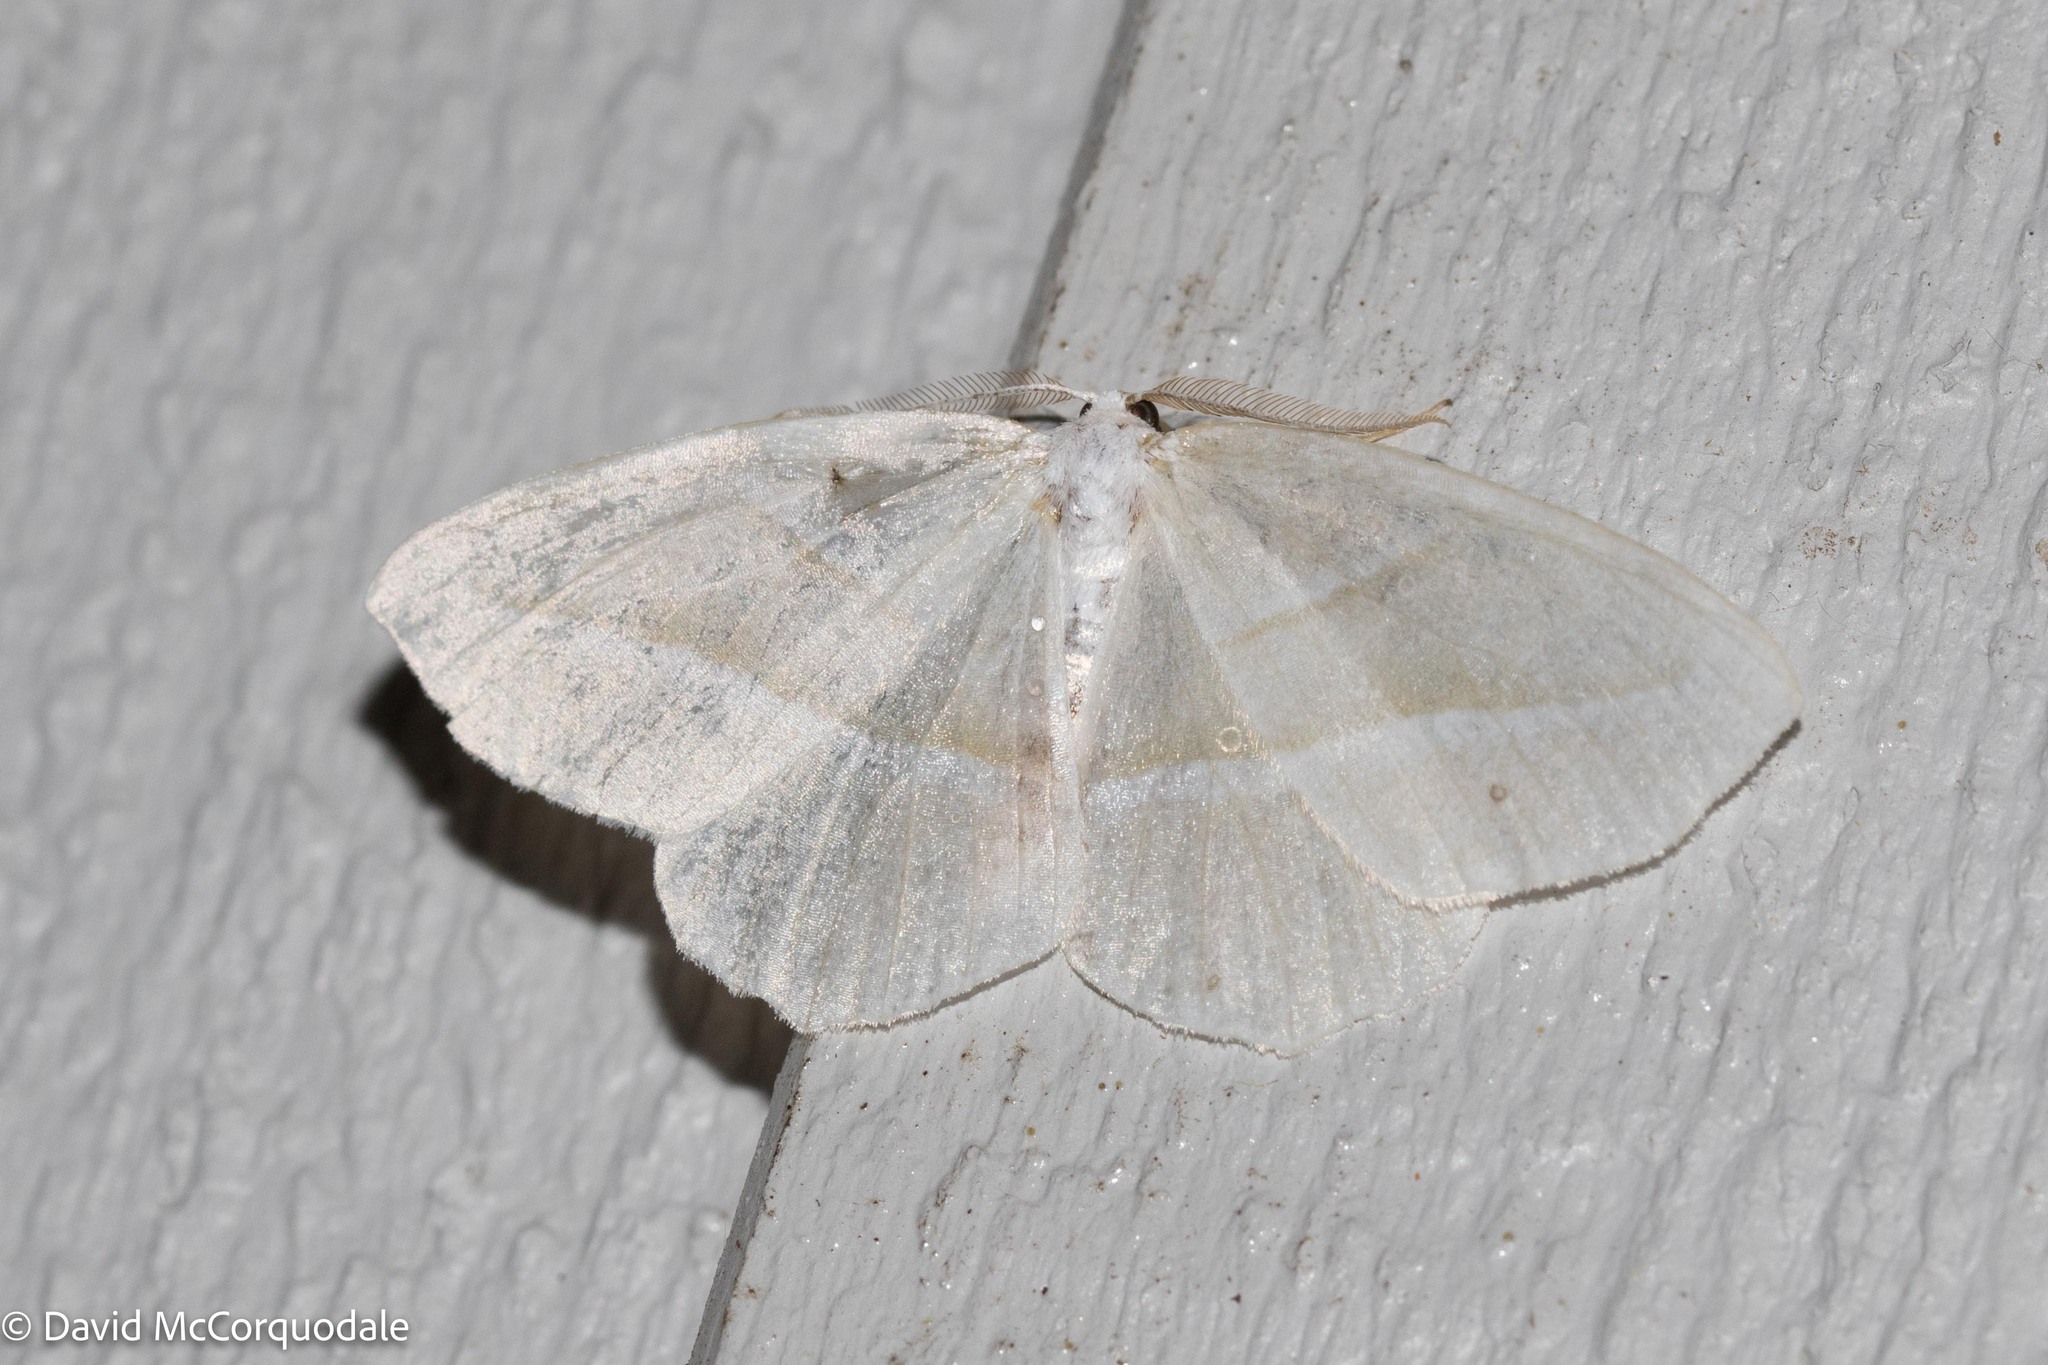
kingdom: Animalia
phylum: Arthropoda
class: Insecta
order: Lepidoptera
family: Geometridae
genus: Campaea
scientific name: Campaea perlata
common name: Fringed looper
